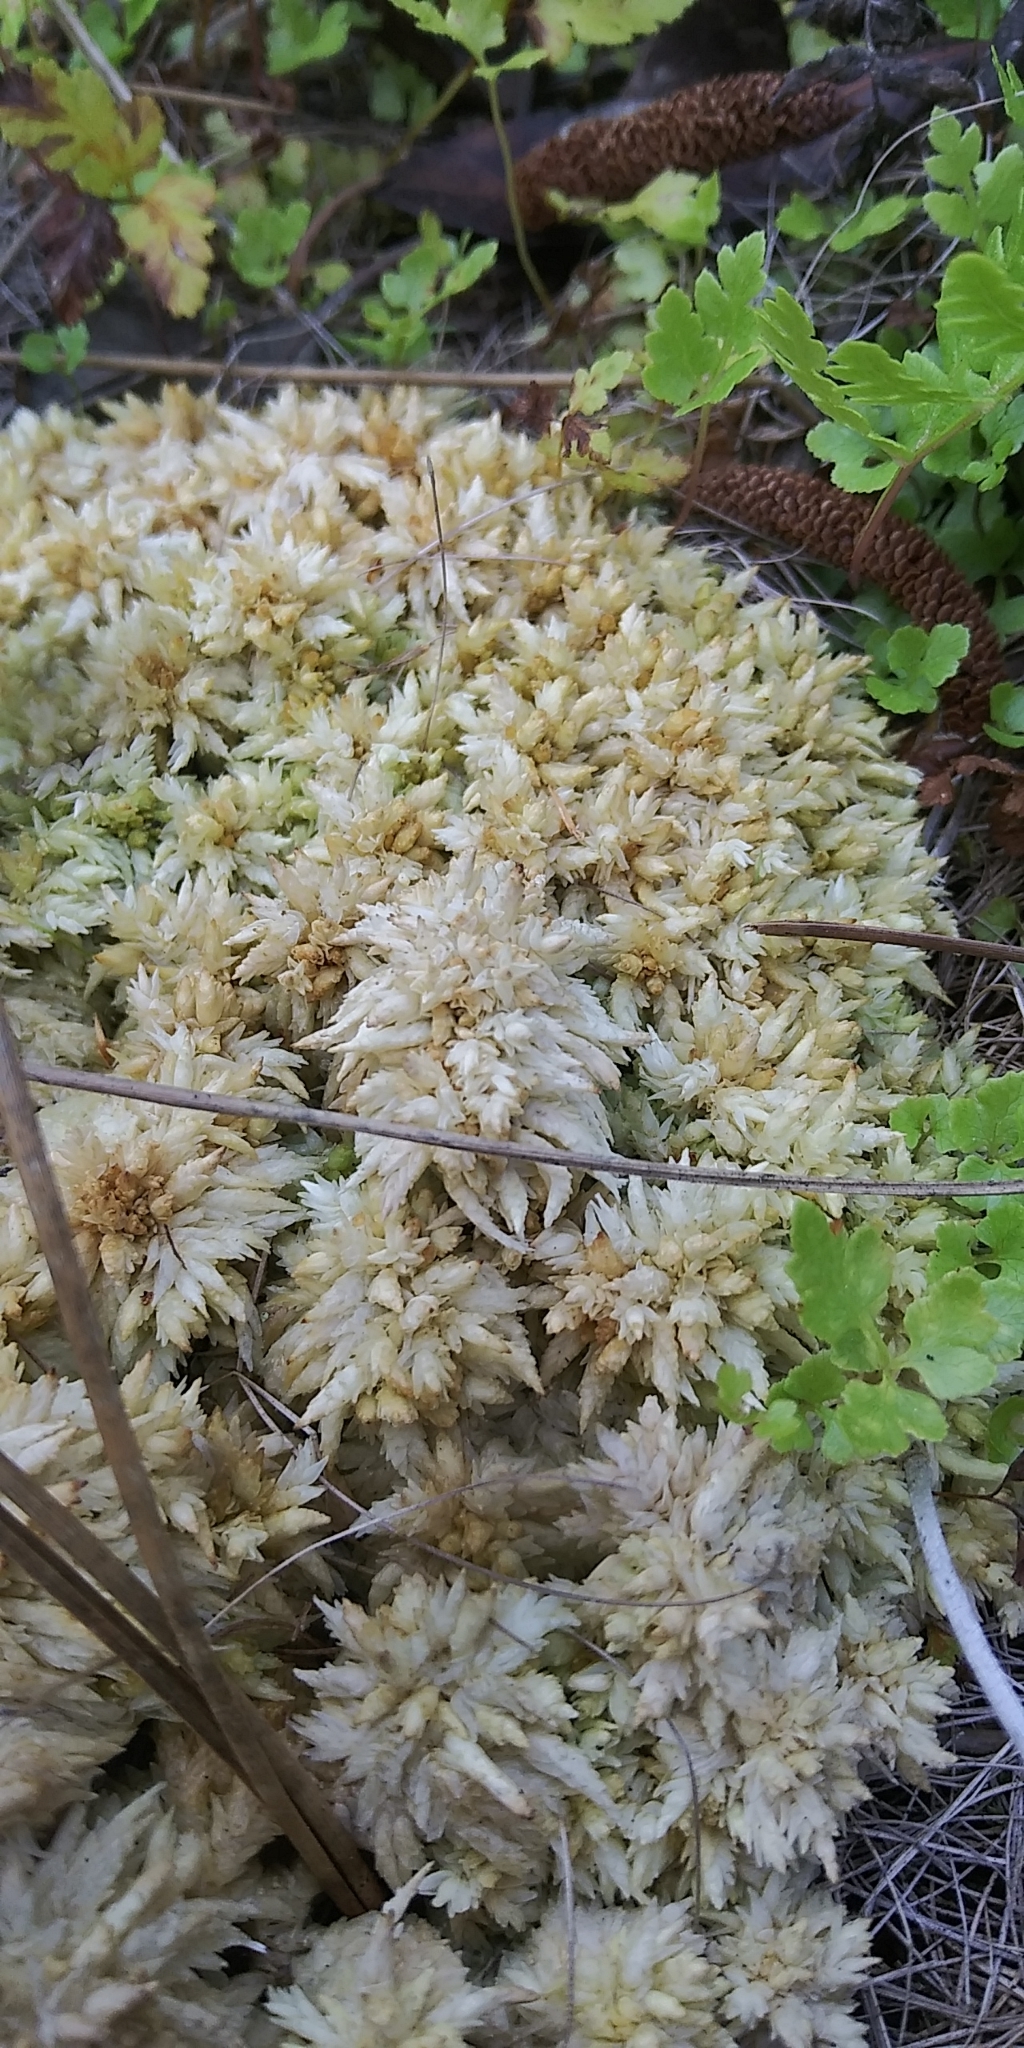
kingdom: Plantae
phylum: Bryophyta
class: Sphagnopsida
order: Sphagnales
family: Sphagnaceae
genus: Sphagnum
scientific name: Sphagnum perichaetiale
